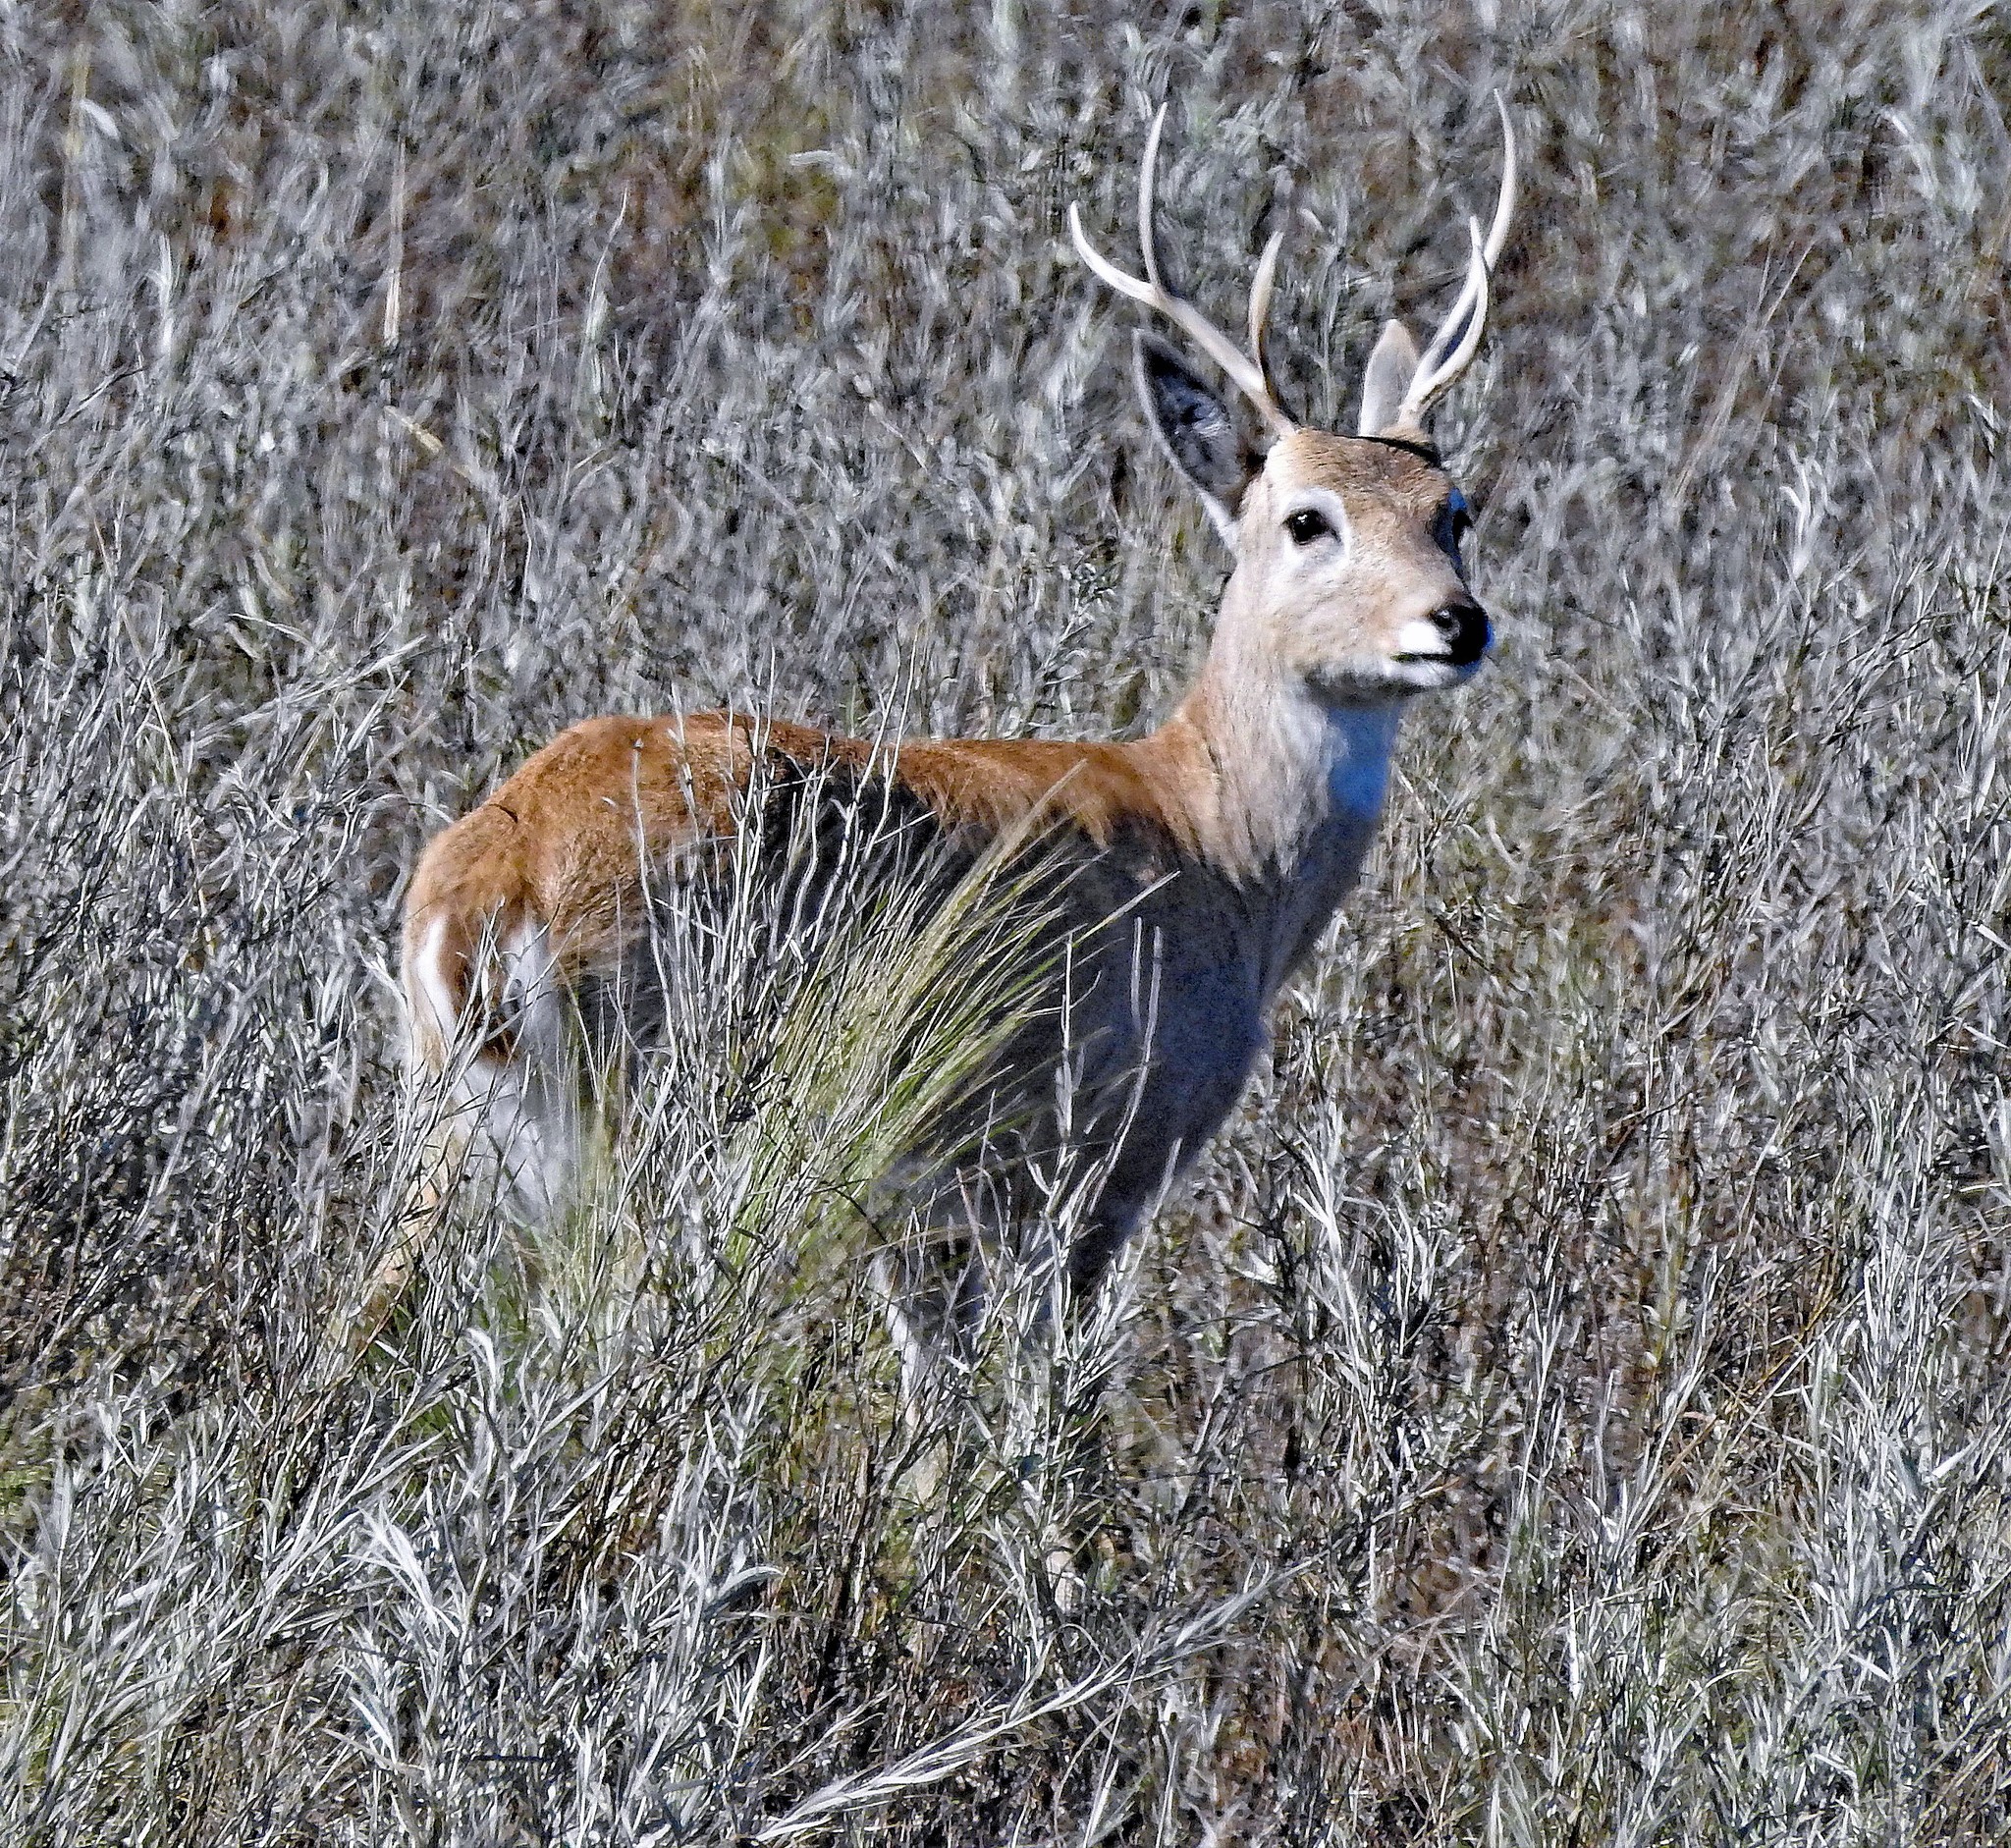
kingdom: Animalia
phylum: Chordata
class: Mammalia
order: Artiodactyla
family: Cervidae
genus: Ozotoceros
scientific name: Ozotoceros bezoarticus
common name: Pampas deer
